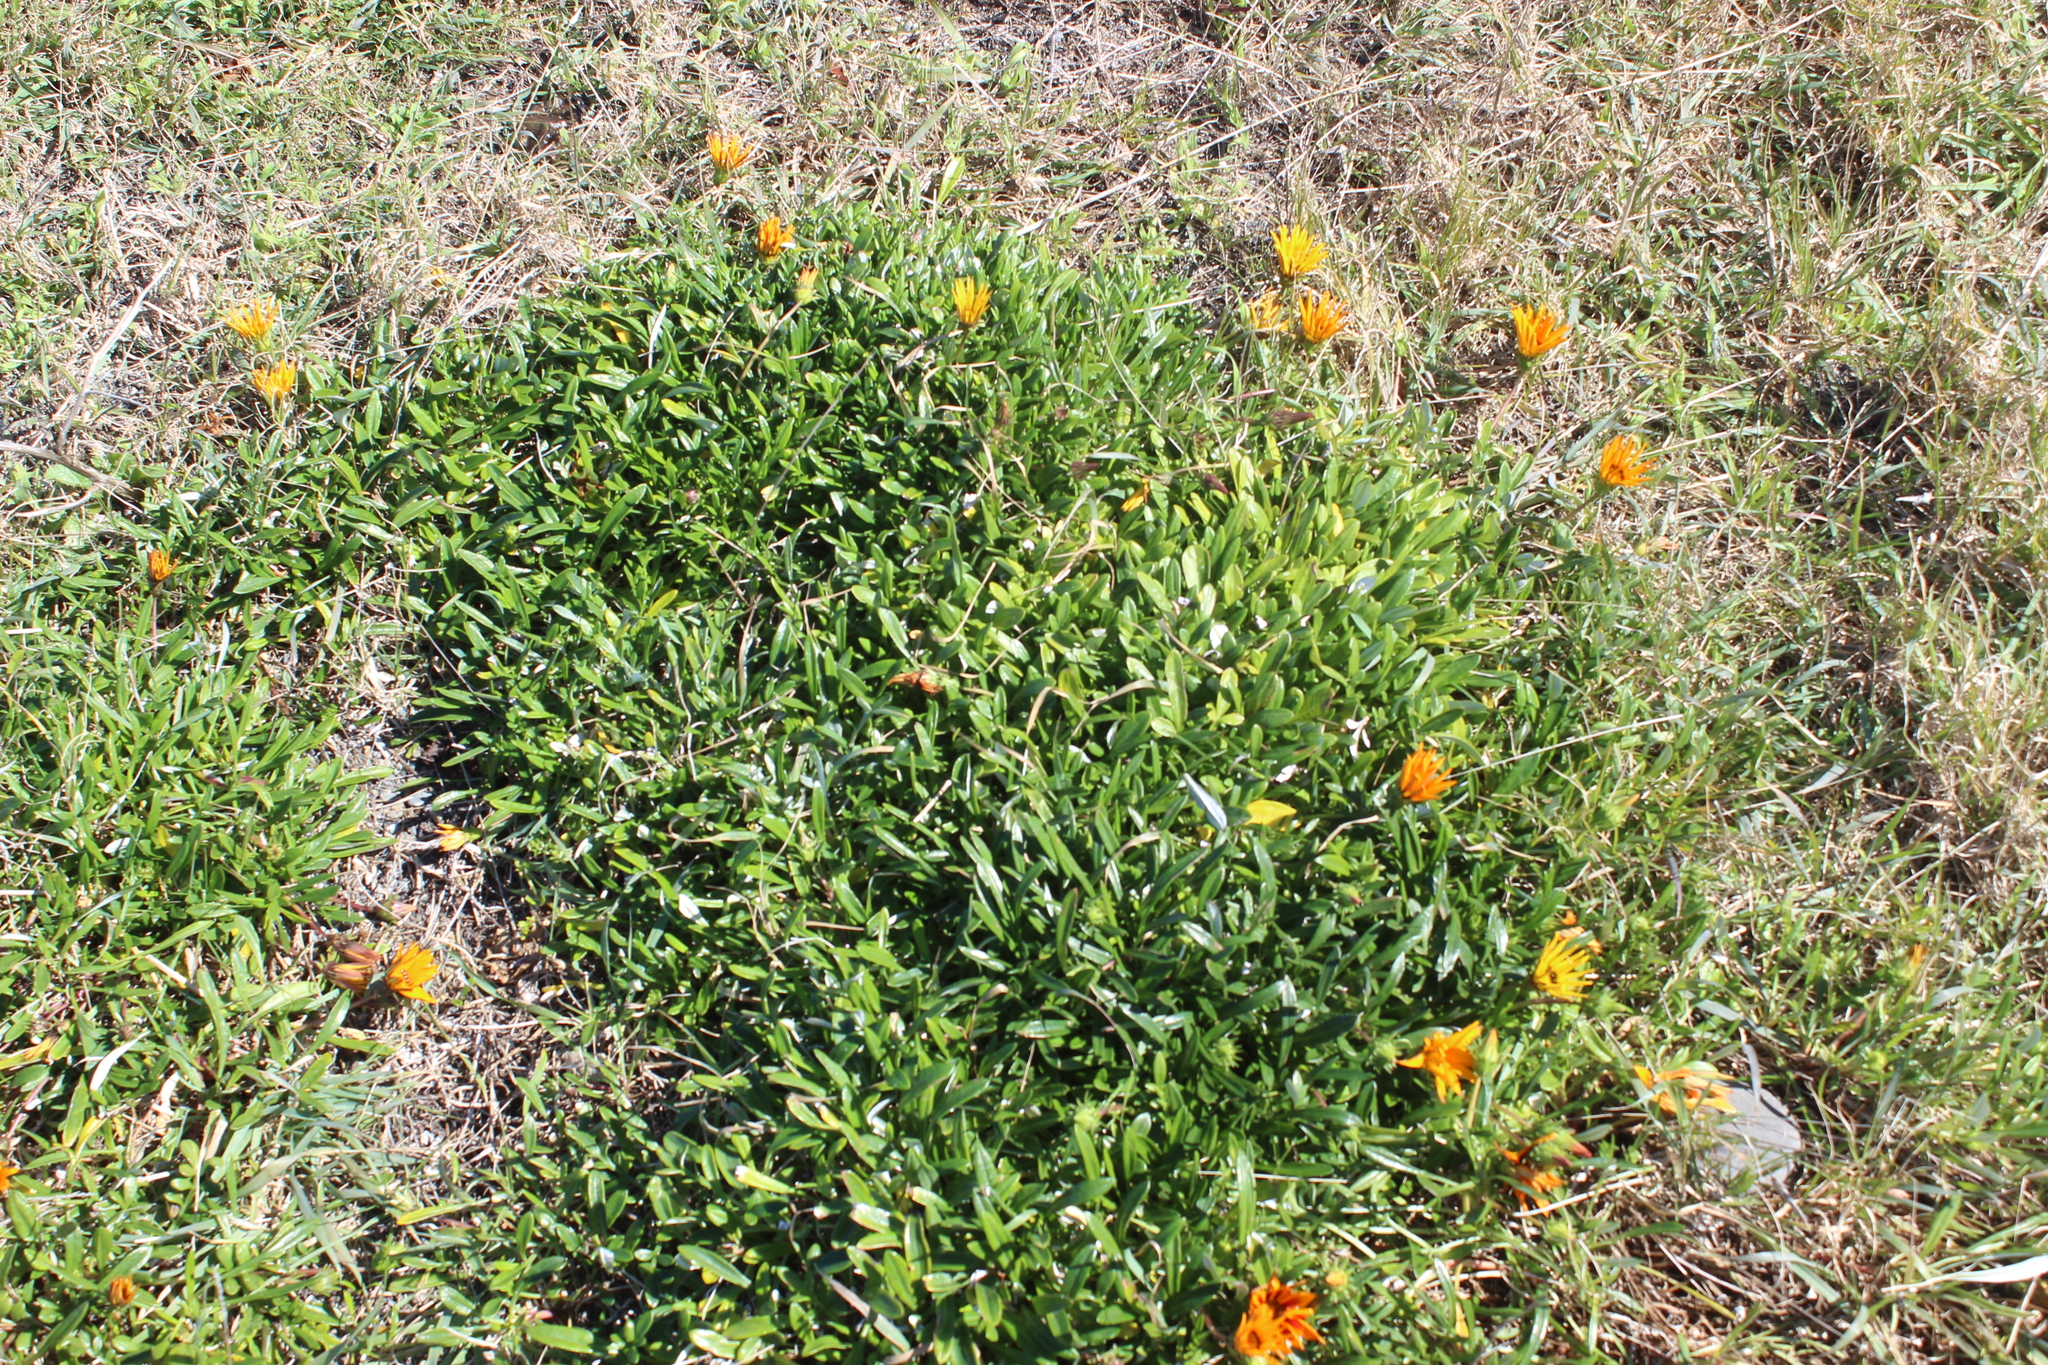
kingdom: Plantae
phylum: Tracheophyta
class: Magnoliopsida
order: Asterales
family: Asteraceae
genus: Gazania
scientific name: Gazania splendens
